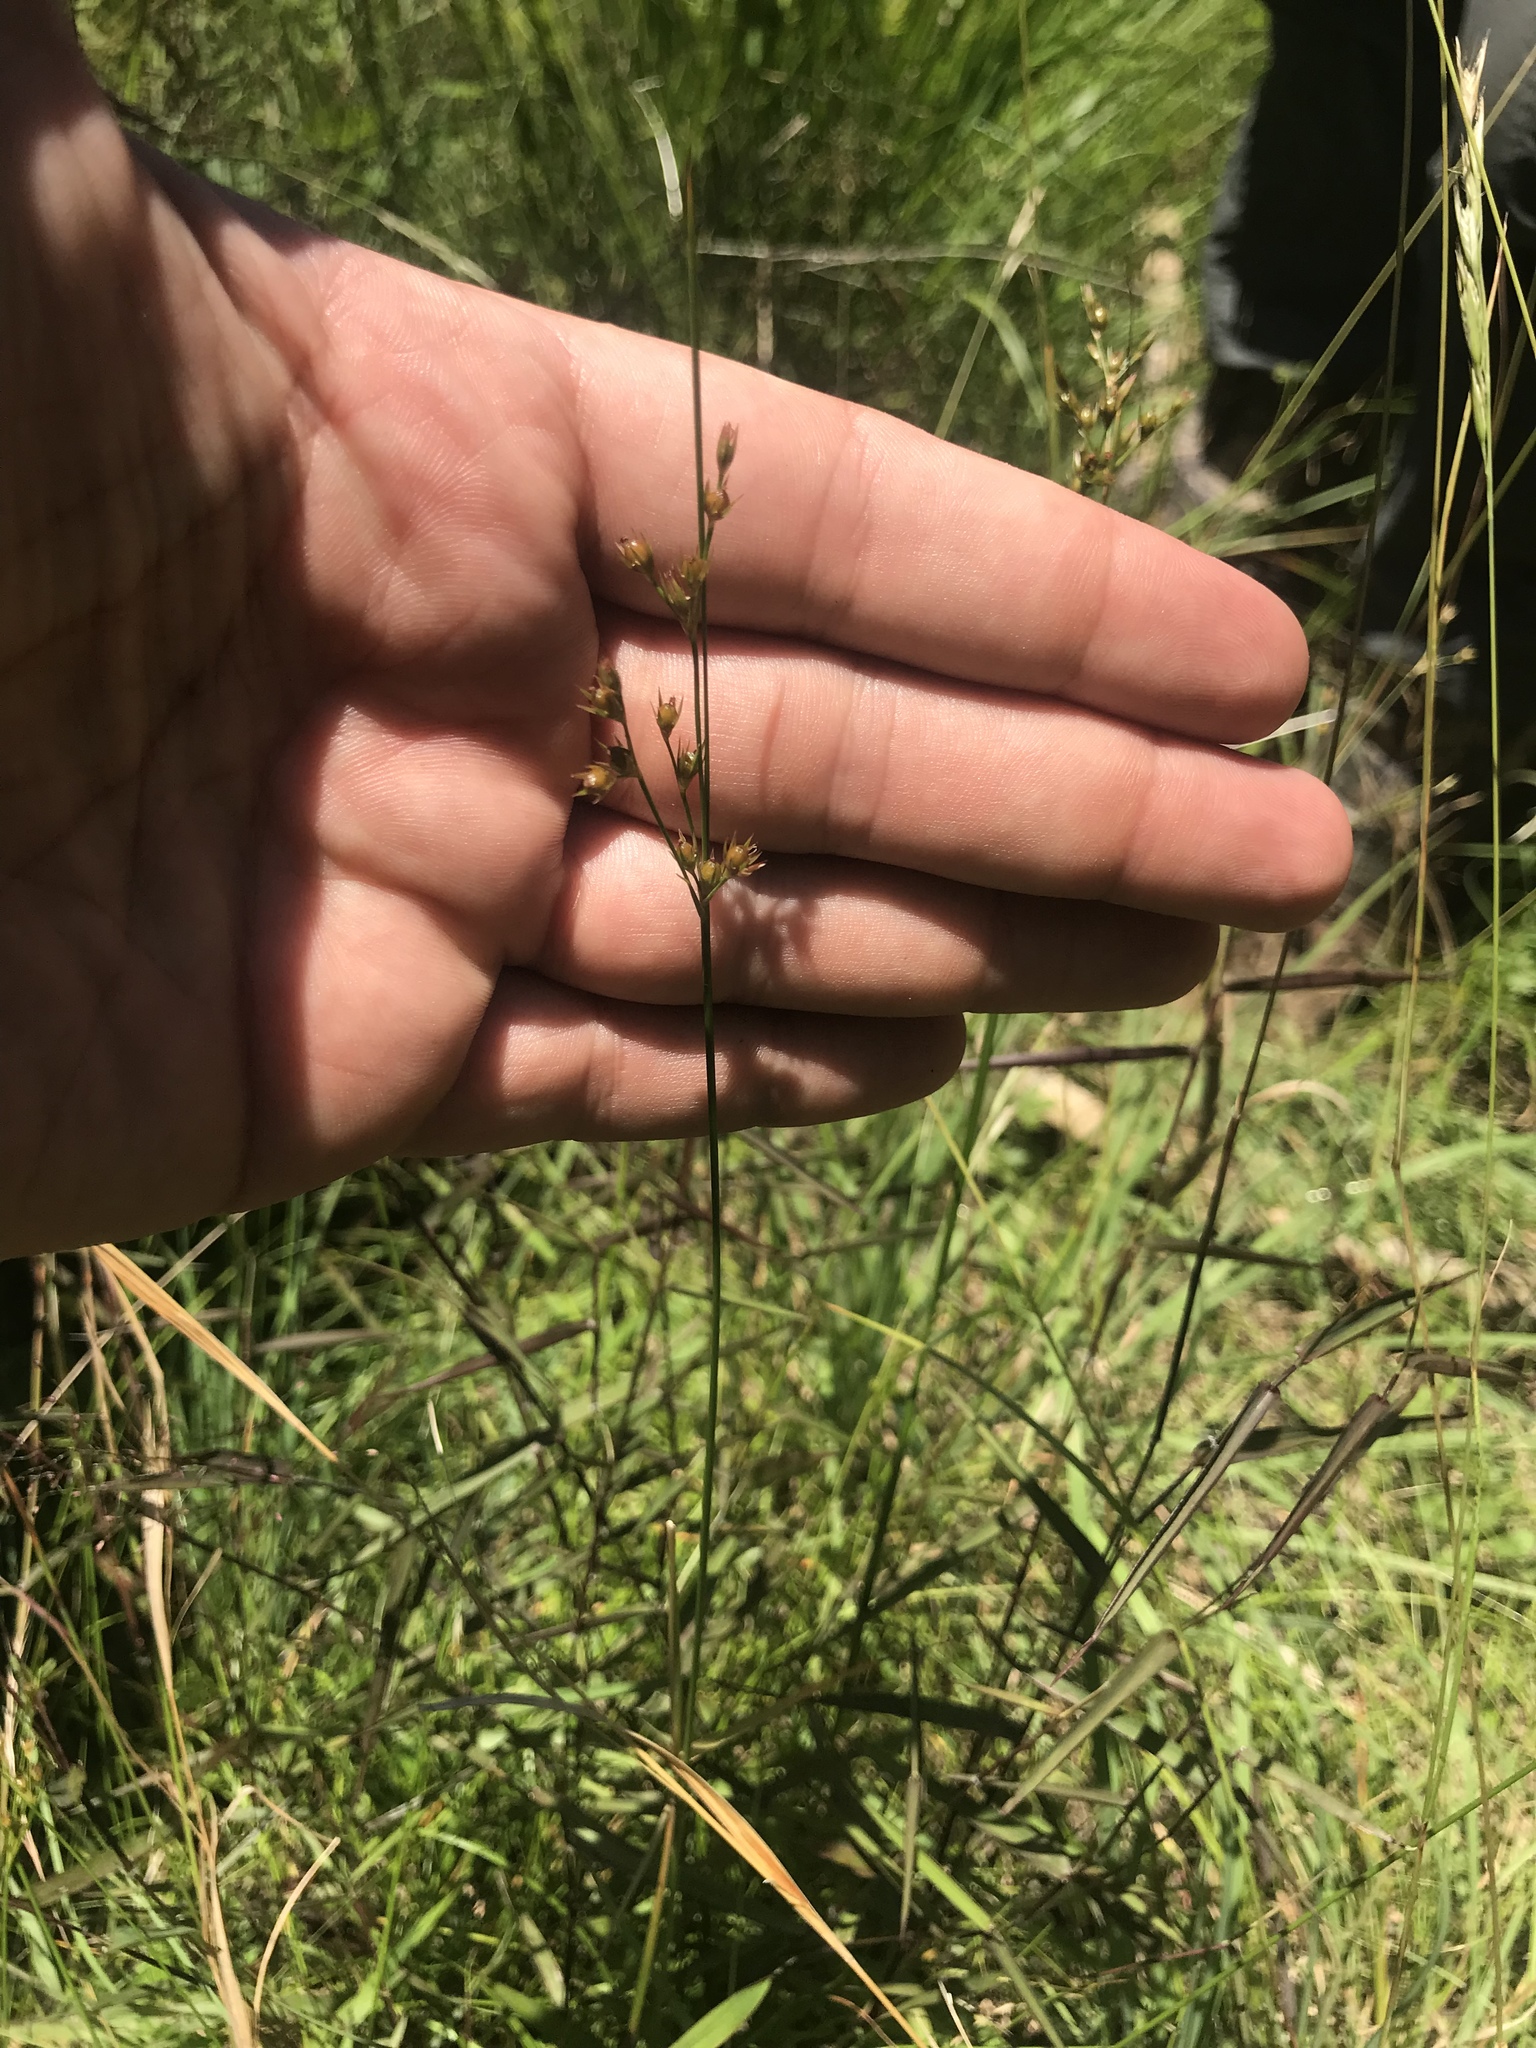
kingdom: Plantae
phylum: Tracheophyta
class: Liliopsida
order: Poales
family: Juncaceae
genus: Juncus
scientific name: Juncus tenuis
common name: Slender rush
